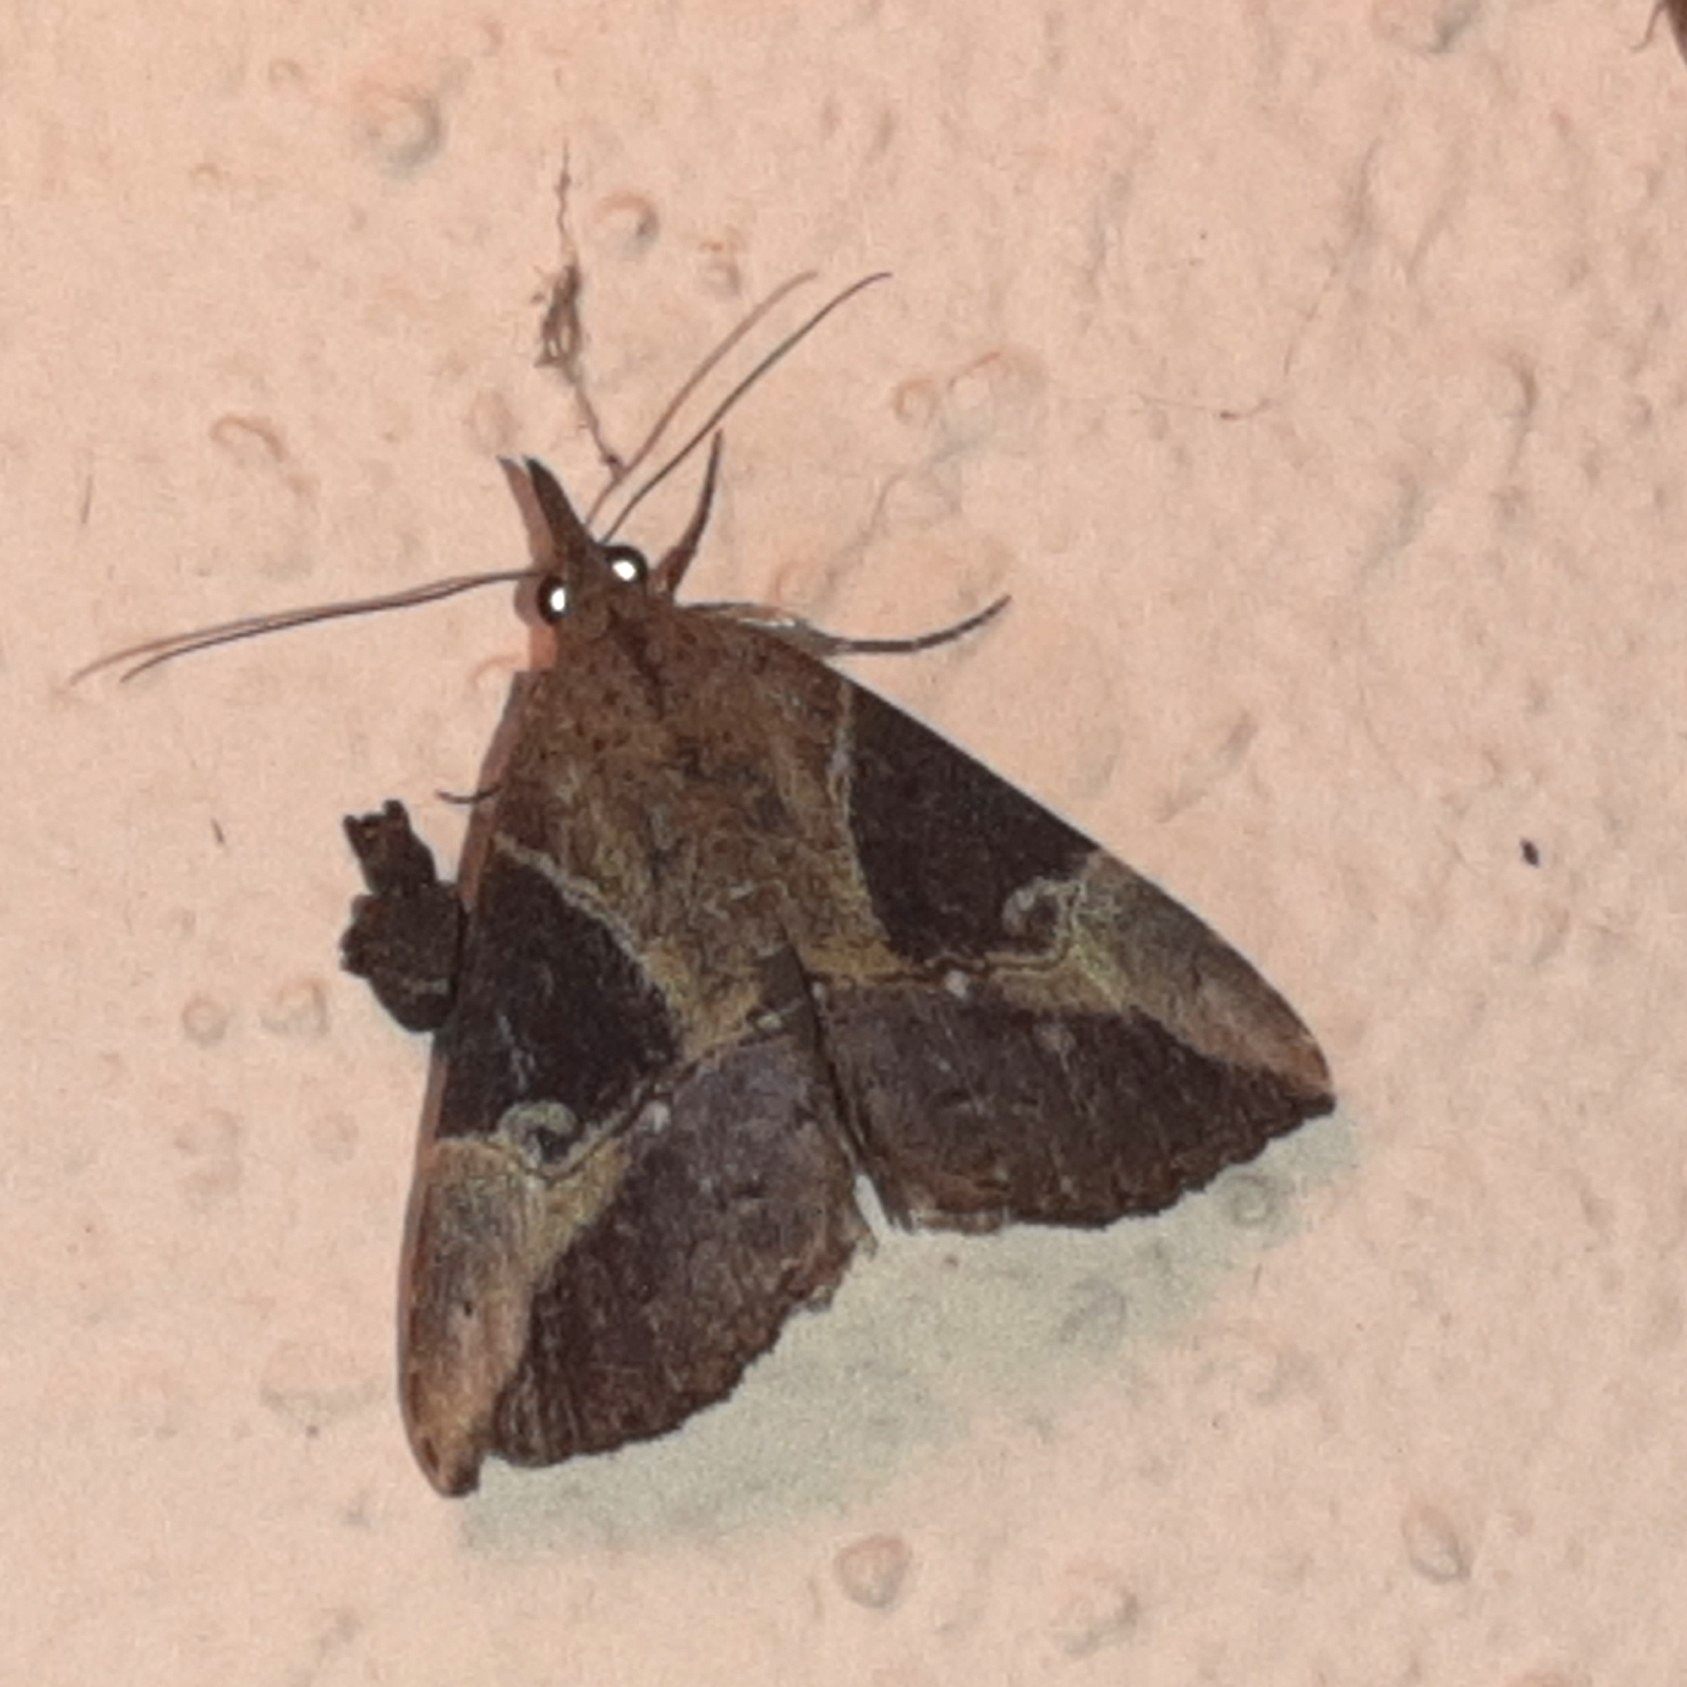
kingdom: Animalia
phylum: Arthropoda
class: Insecta
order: Lepidoptera
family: Erebidae
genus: Hypena
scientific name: Hypena andraca
